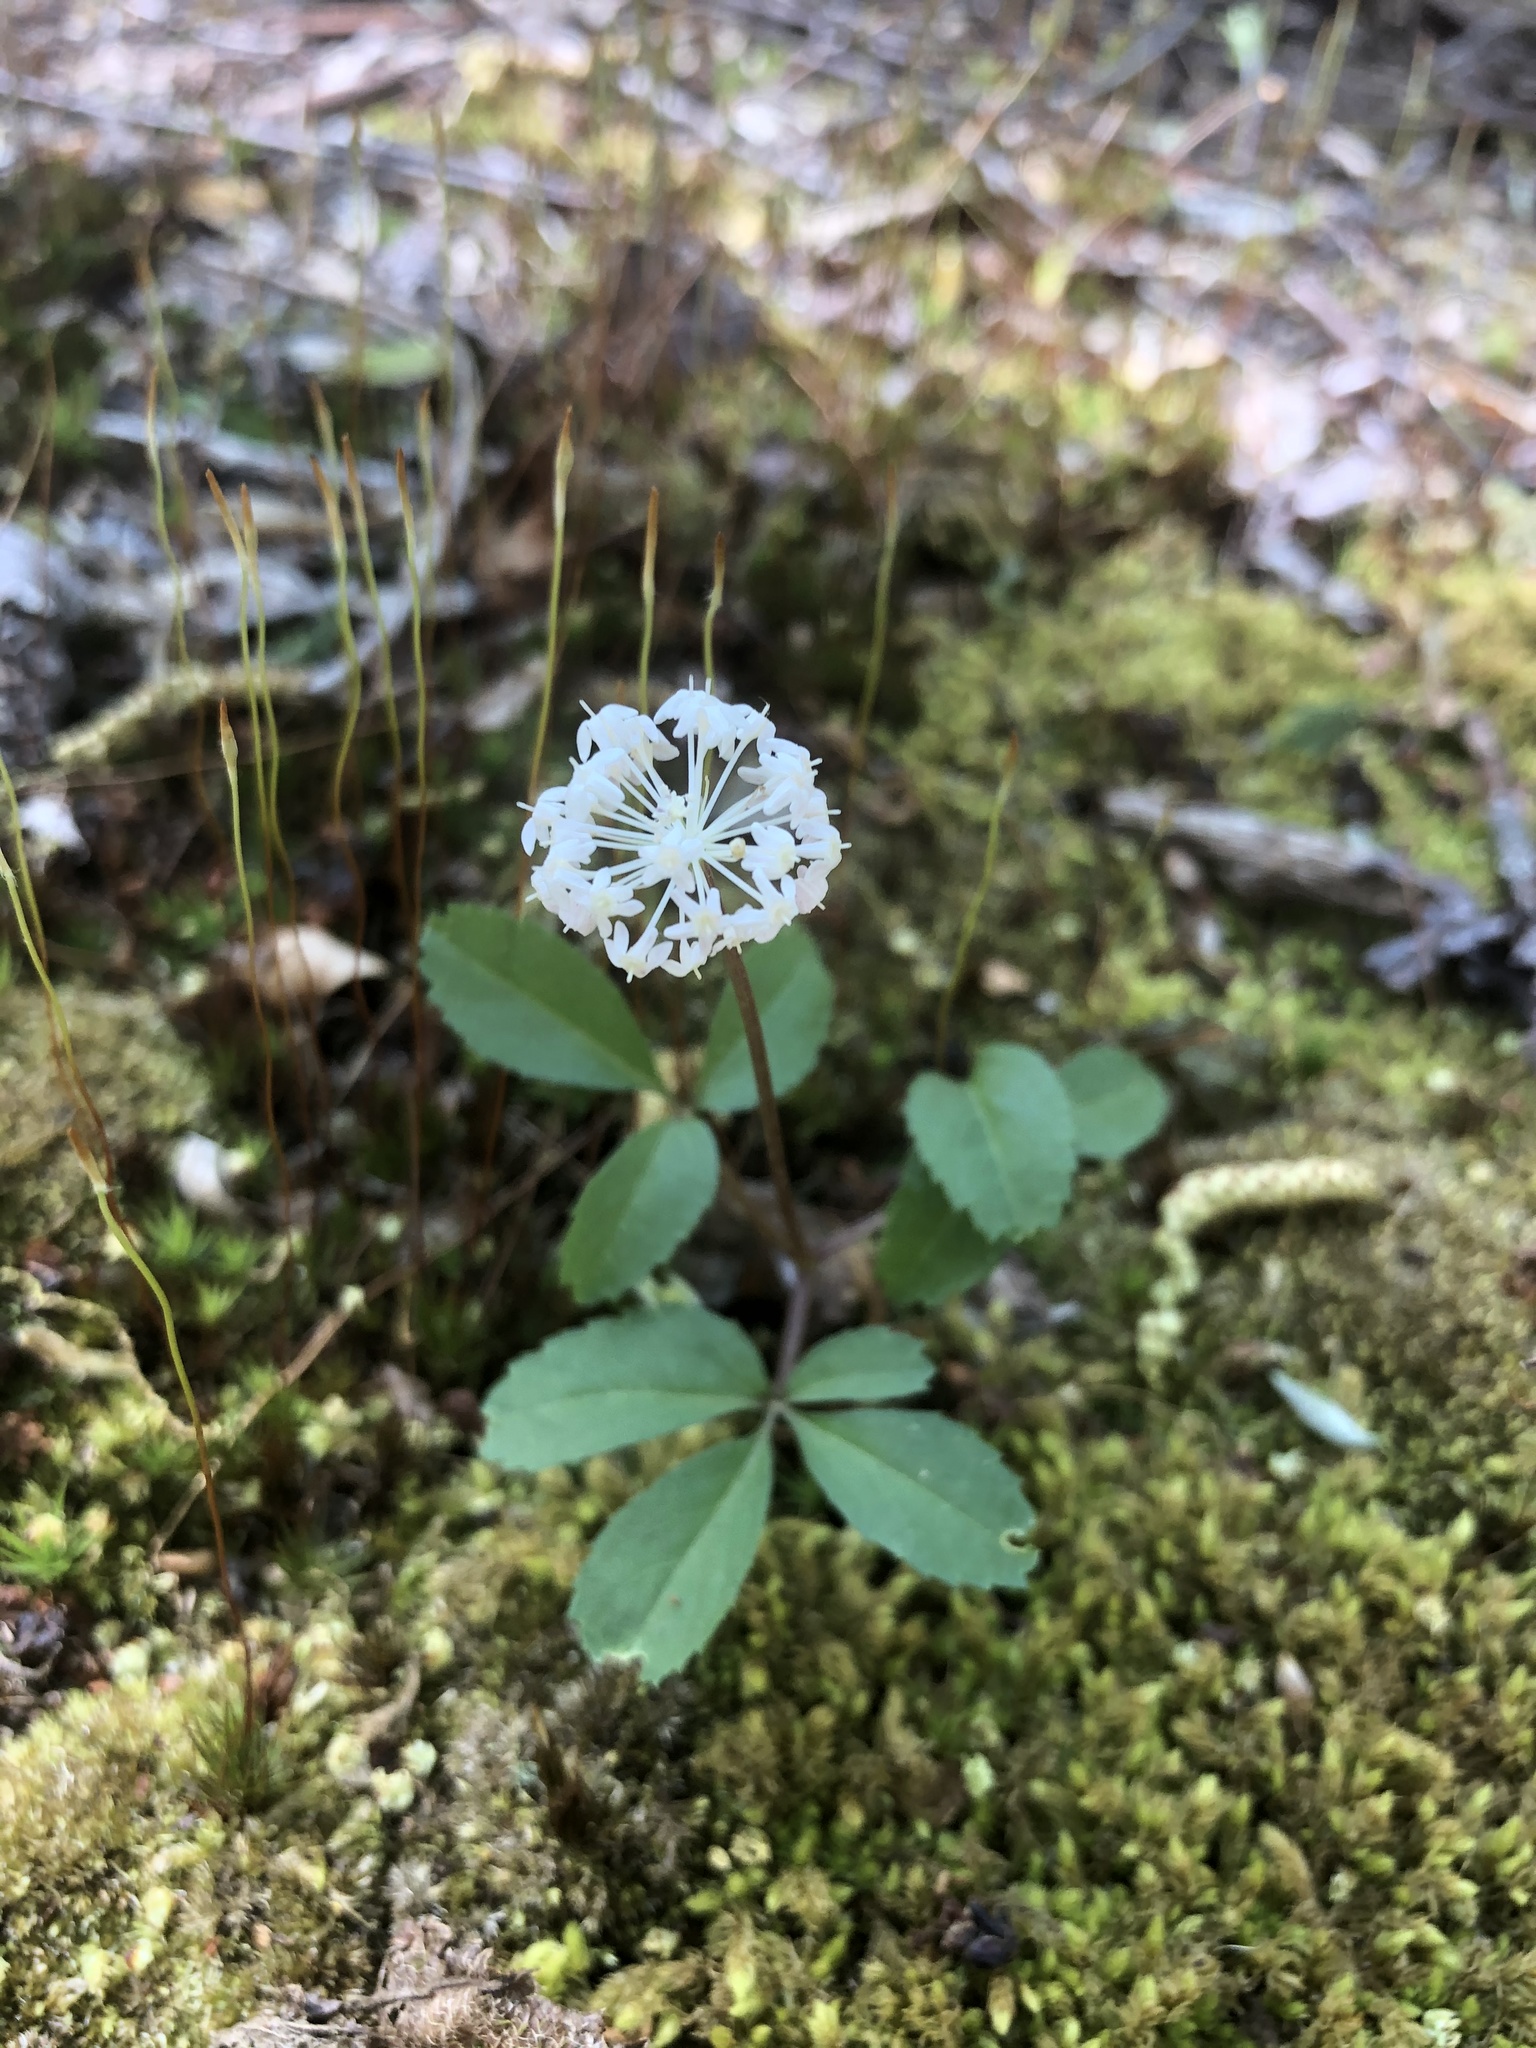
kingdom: Plantae
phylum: Tracheophyta
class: Magnoliopsida
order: Apiales
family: Araliaceae
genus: Panax
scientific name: Panax trifolius
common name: Dwarf ginseng
